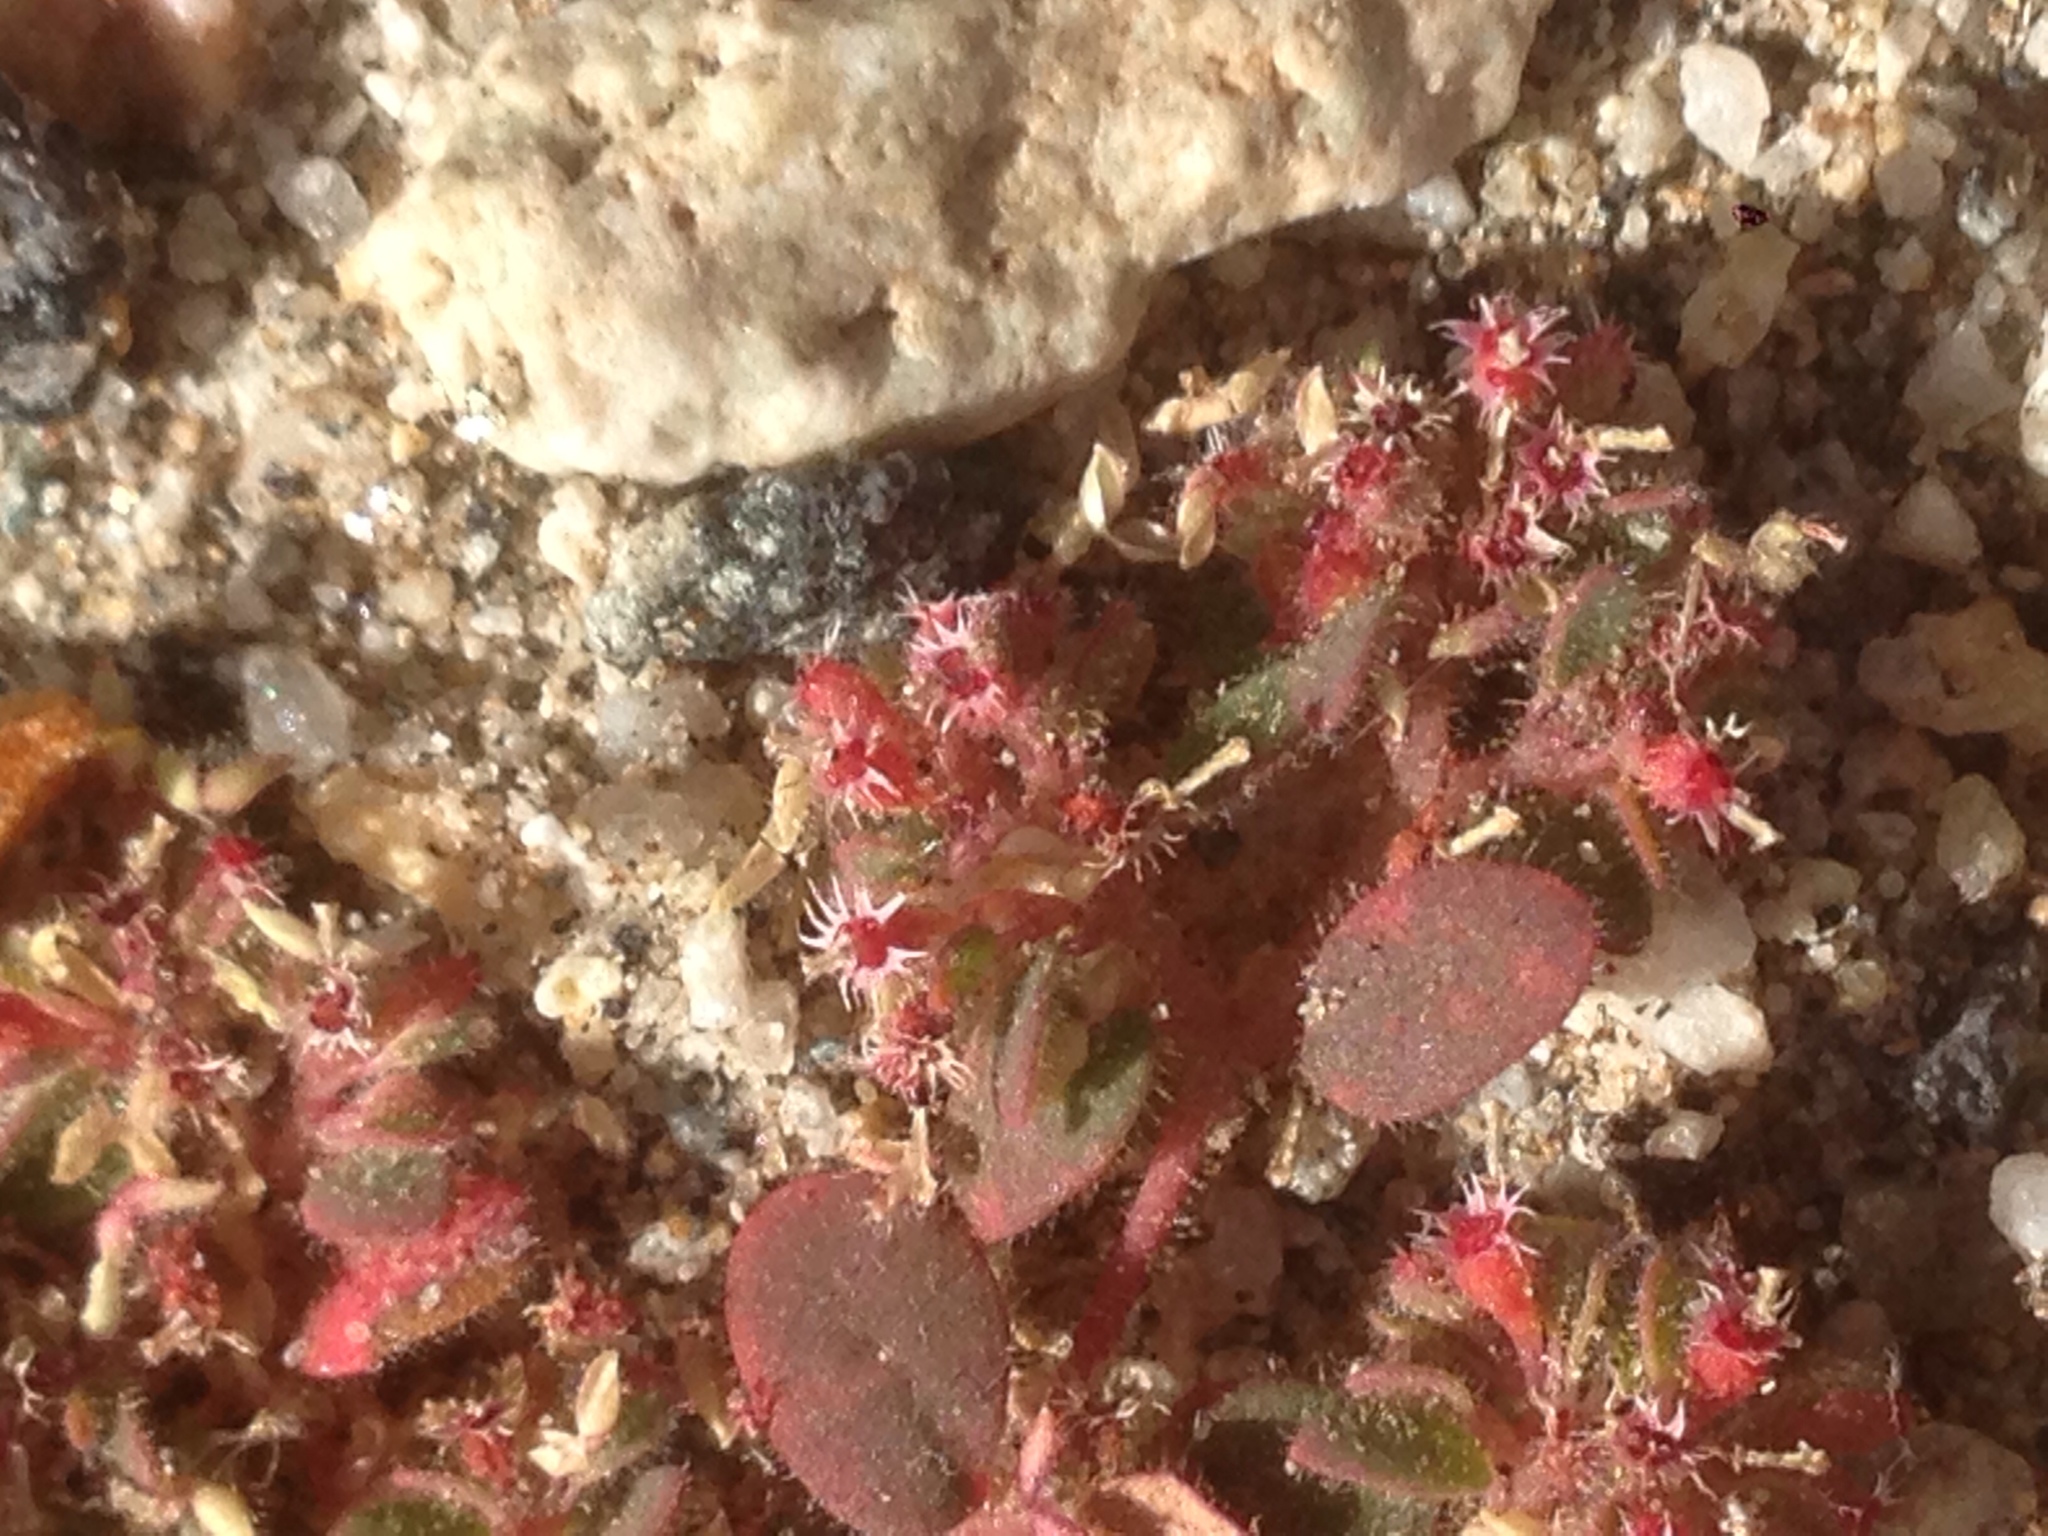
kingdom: Plantae
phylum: Tracheophyta
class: Magnoliopsida
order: Malpighiales
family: Euphorbiaceae
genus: Euphorbia
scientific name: Euphorbia setiloba
